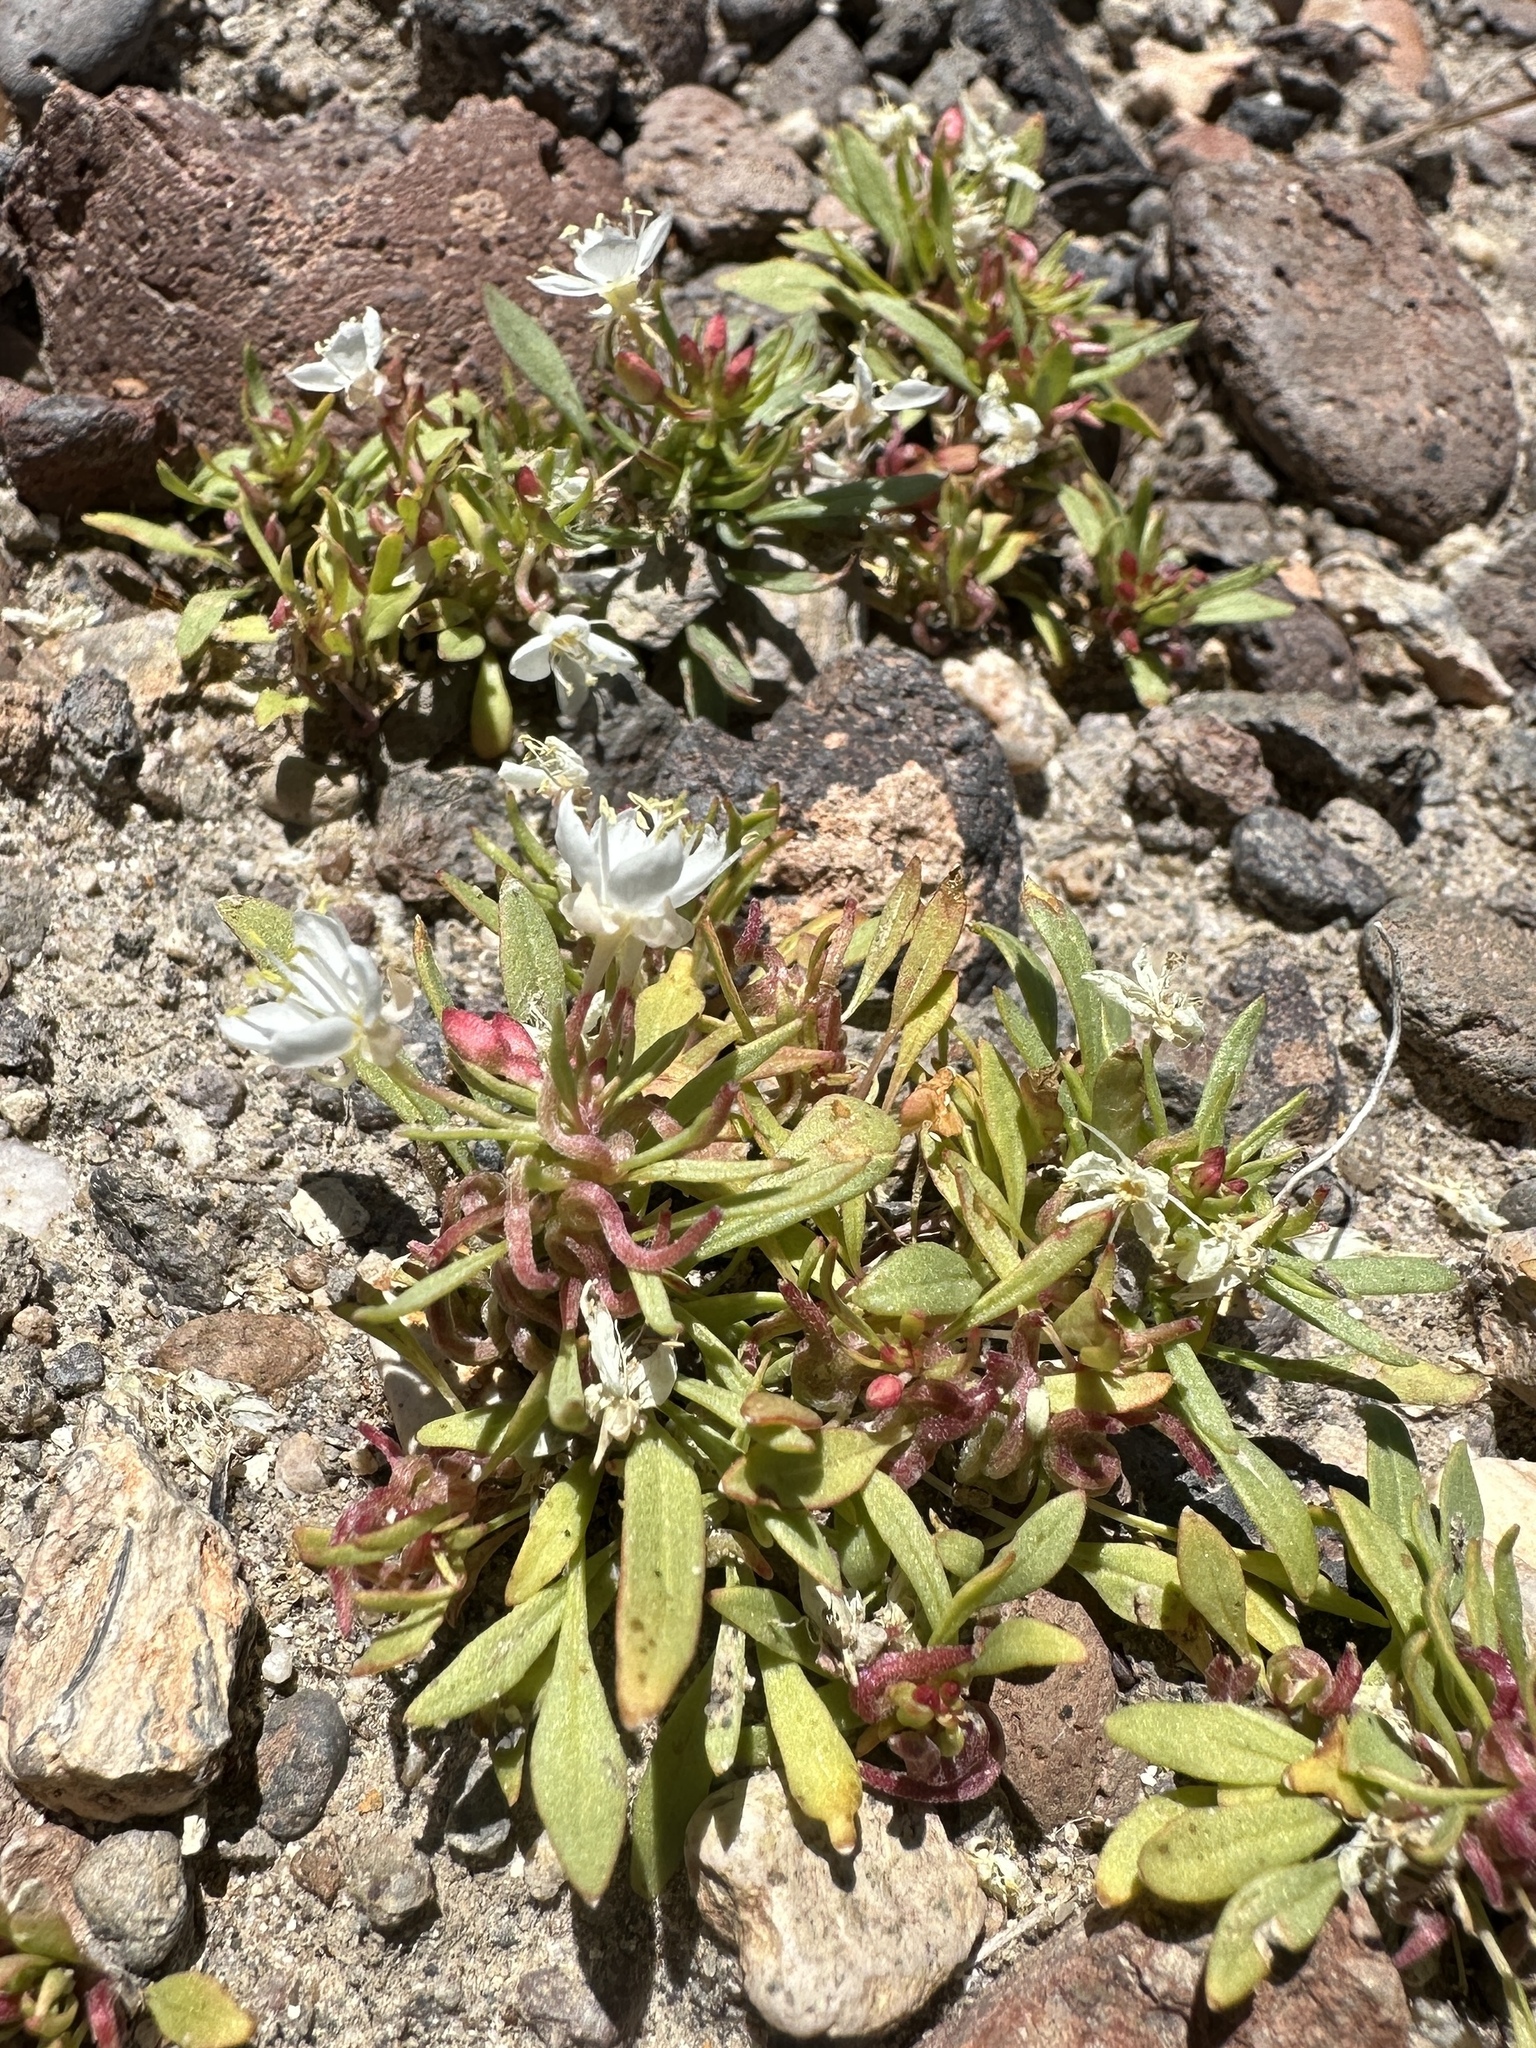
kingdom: Plantae
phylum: Tracheophyta
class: Magnoliopsida
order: Myrtales
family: Onagraceae
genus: Eremothera
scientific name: Eremothera nevadensis
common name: Nevada suncup
